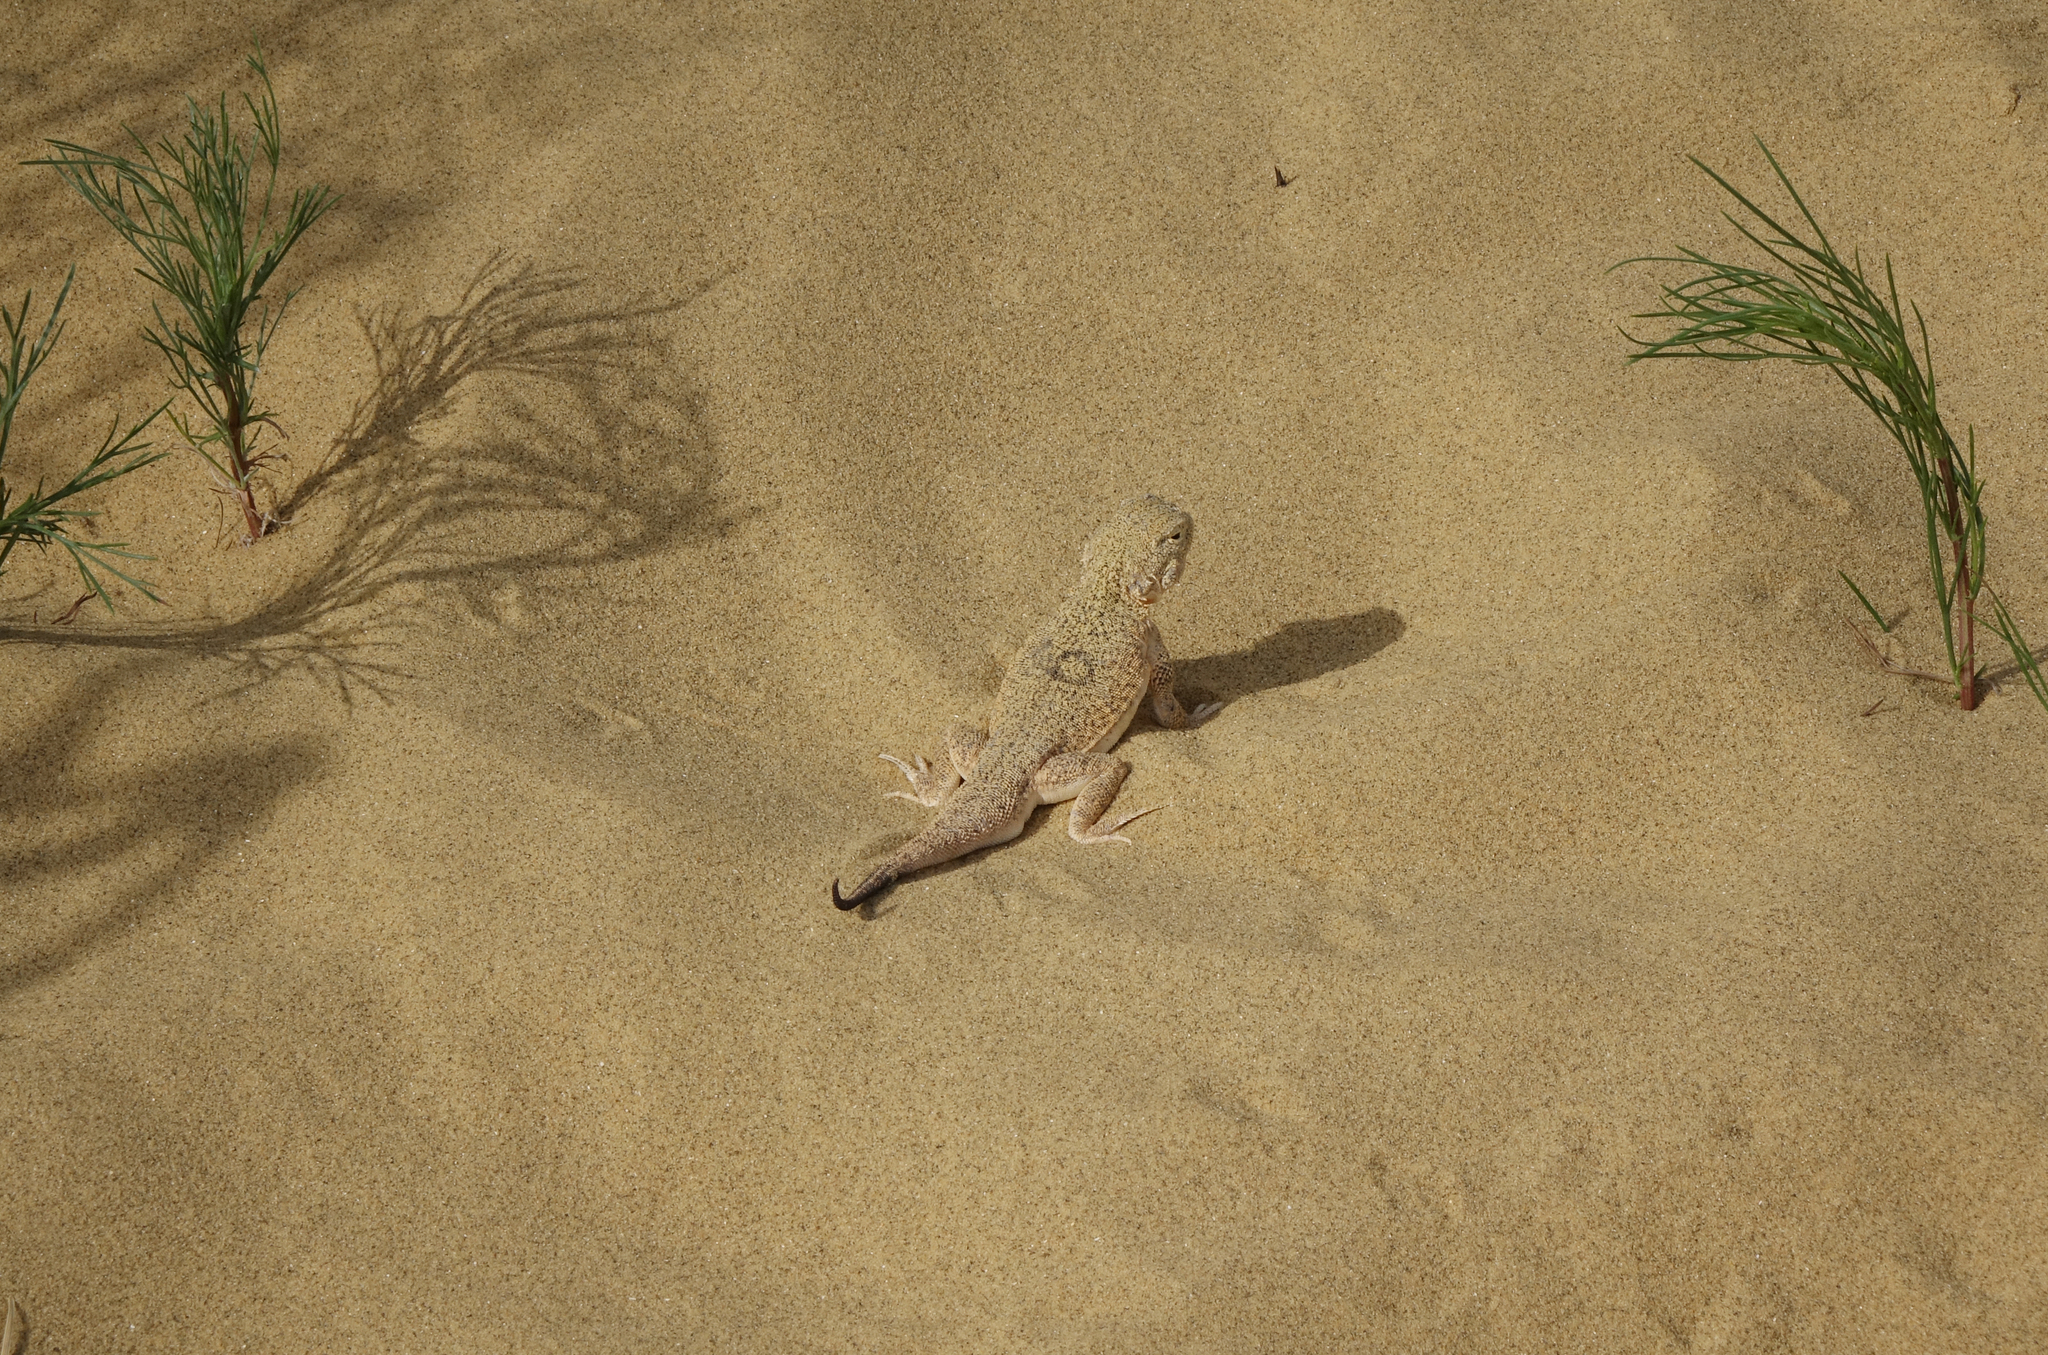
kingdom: Animalia
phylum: Chordata
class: Squamata
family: Agamidae
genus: Phrynocephalus
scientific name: Phrynocephalus mystaceus
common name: Secret toadhead agama
